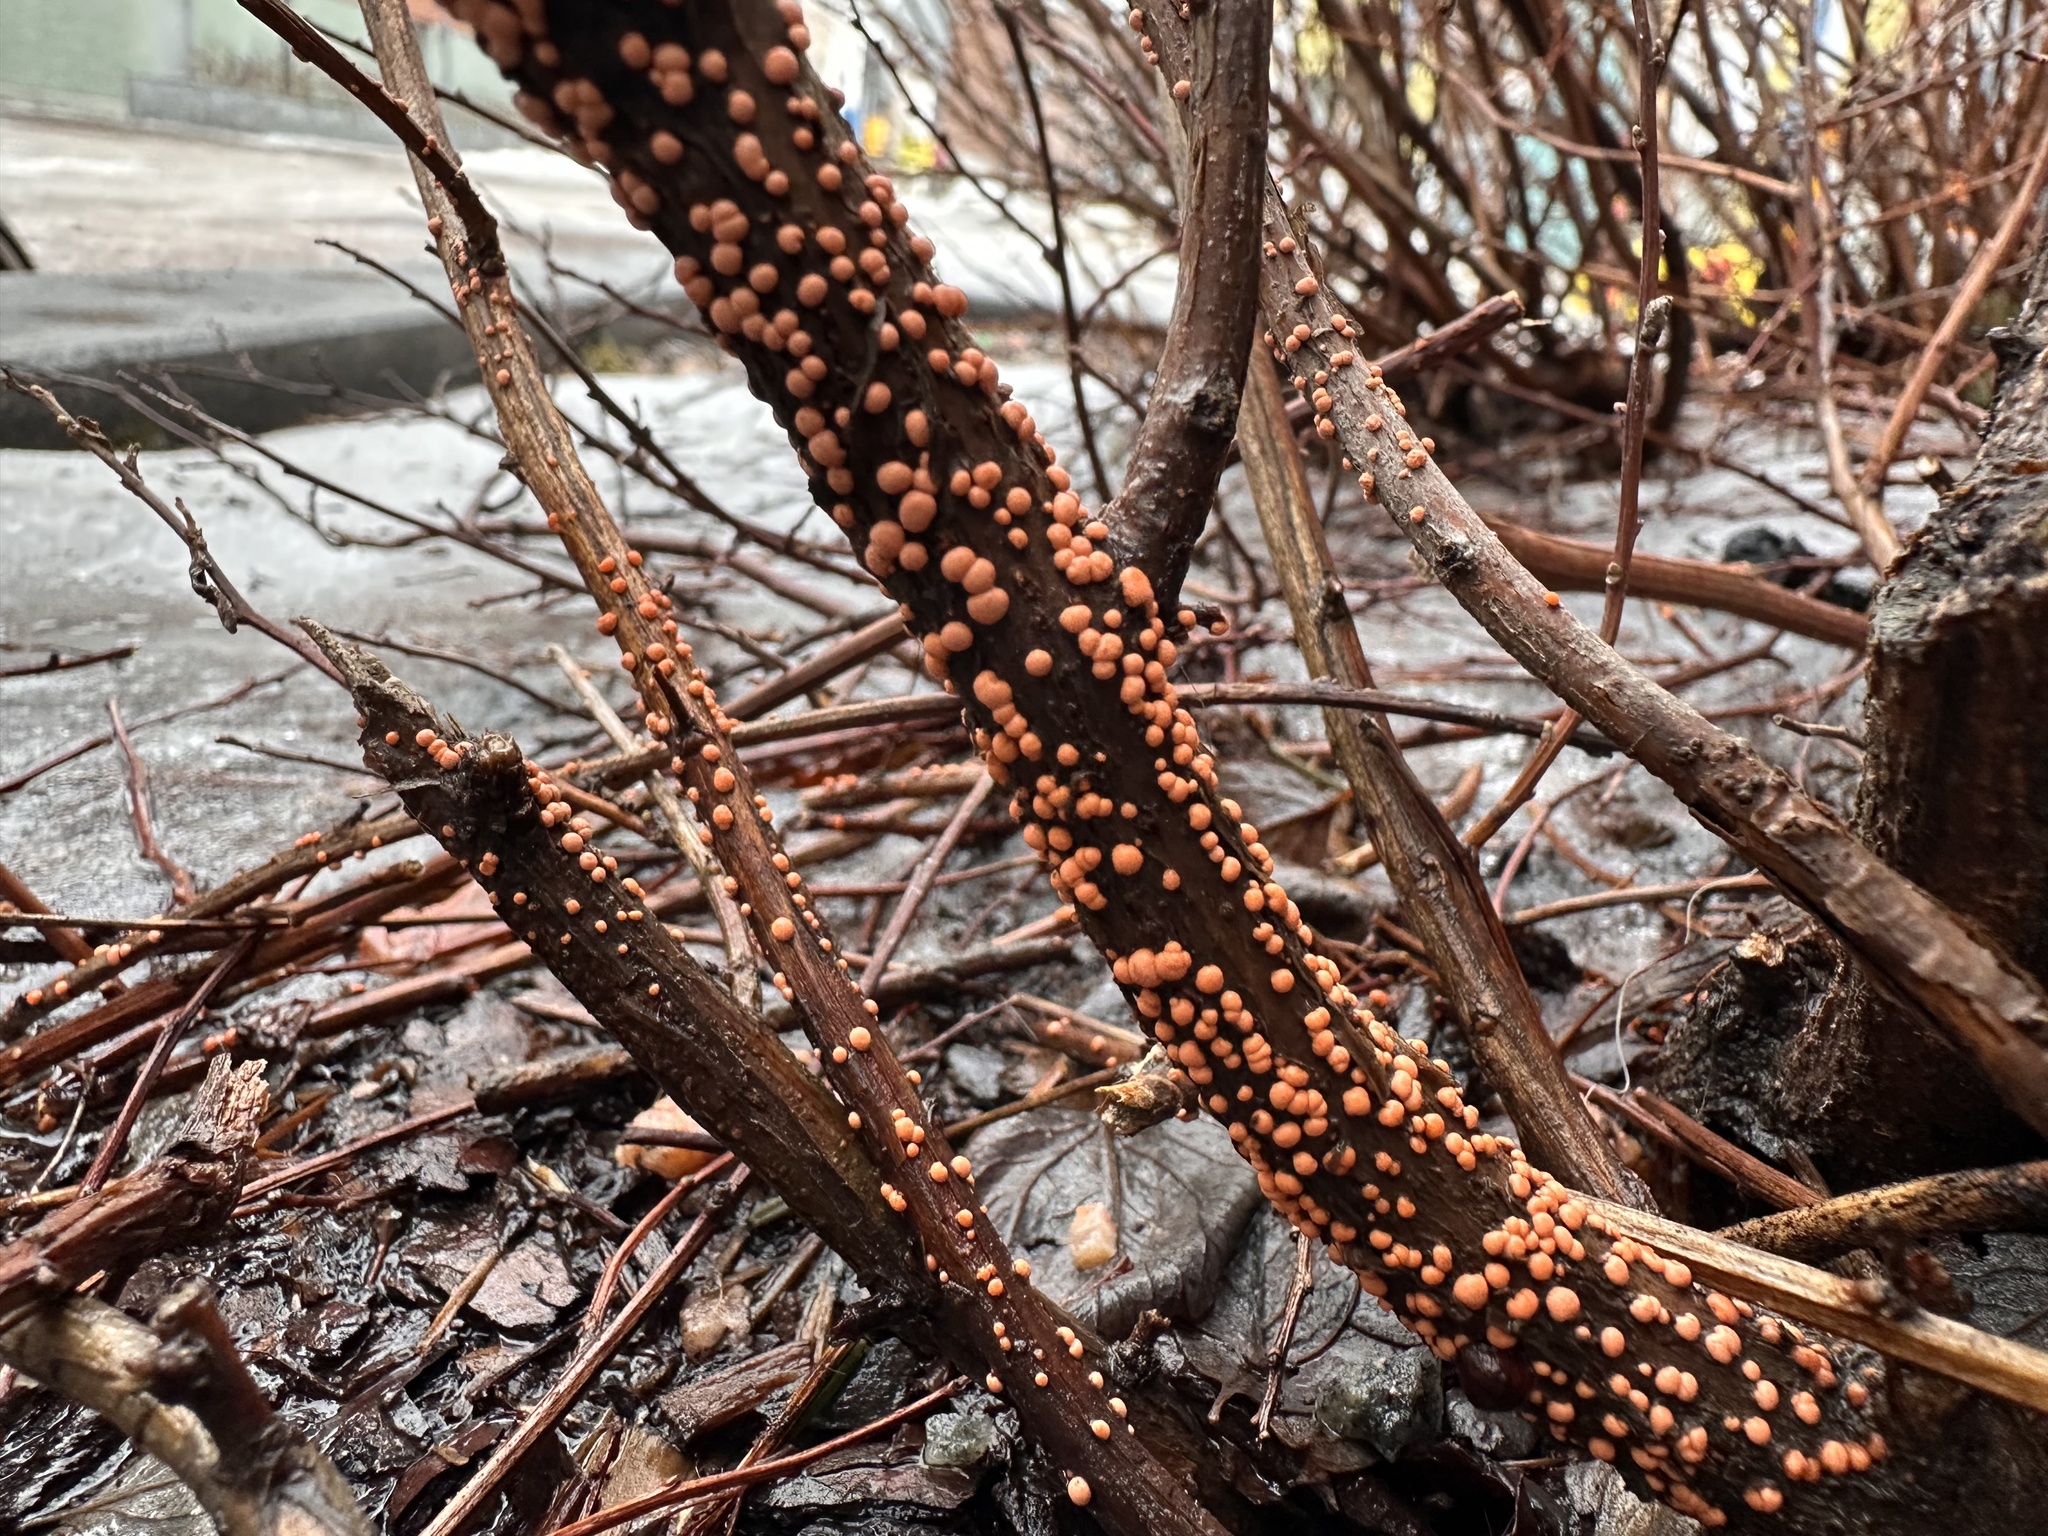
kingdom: Fungi
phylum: Ascomycota
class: Sordariomycetes
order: Hypocreales
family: Nectriaceae
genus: Nectria
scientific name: Nectria cinnabarina
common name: Coral spot
